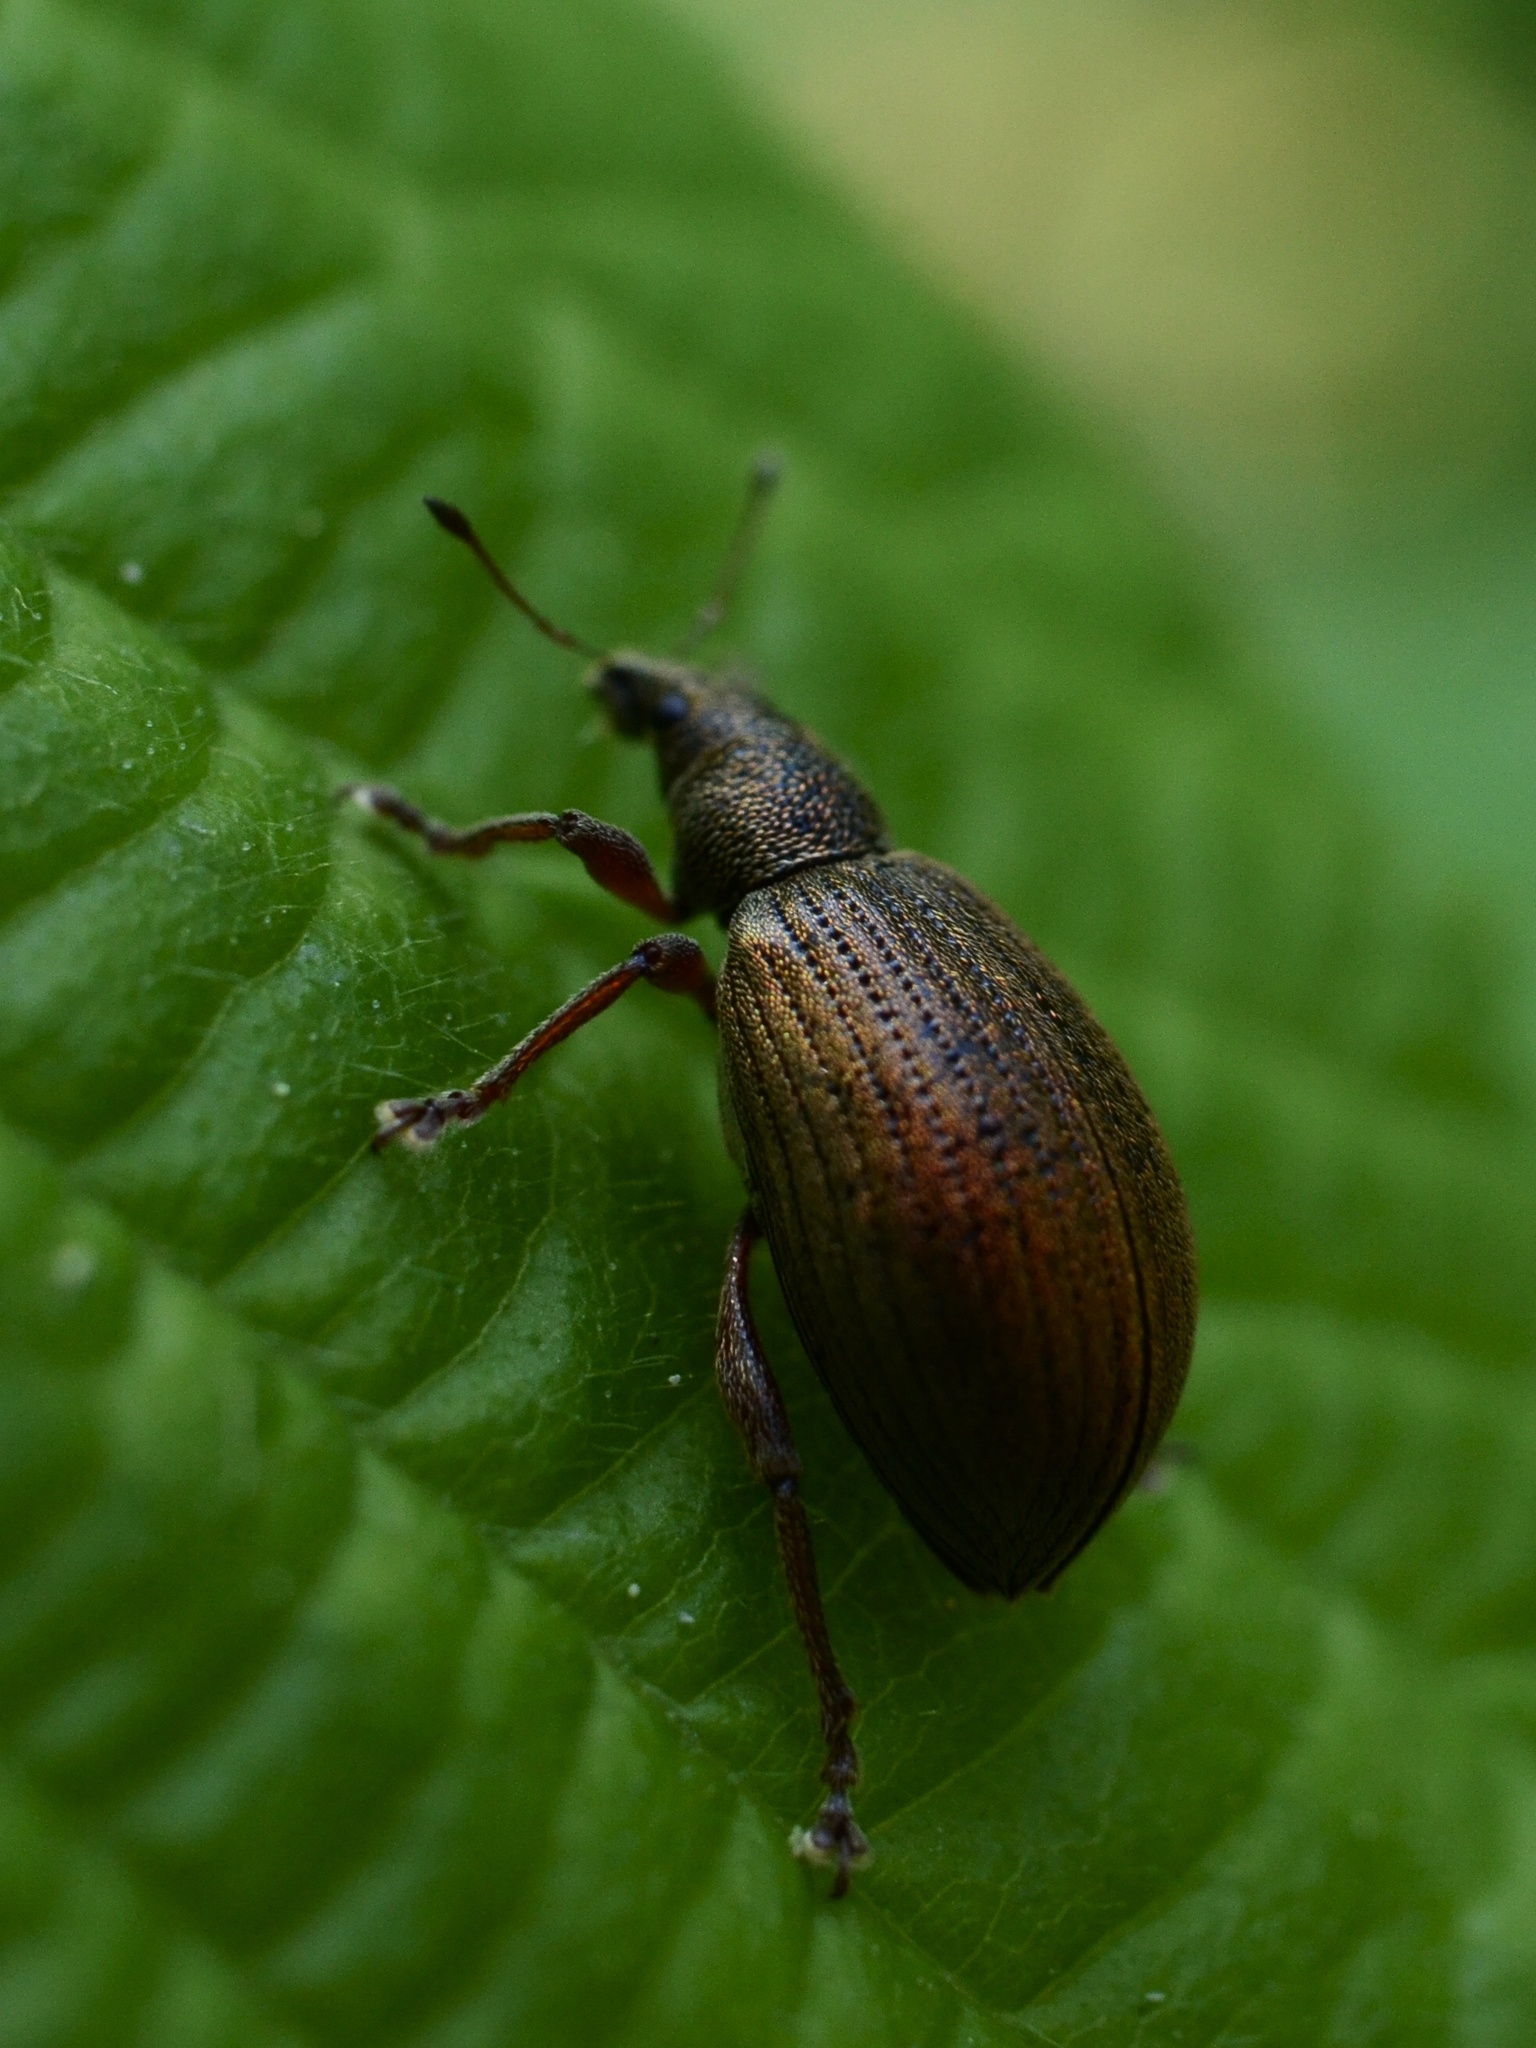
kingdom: Animalia
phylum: Arthropoda
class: Insecta
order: Coleoptera
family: Curculionidae
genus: Polydrusus
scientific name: Polydrusus mollis
